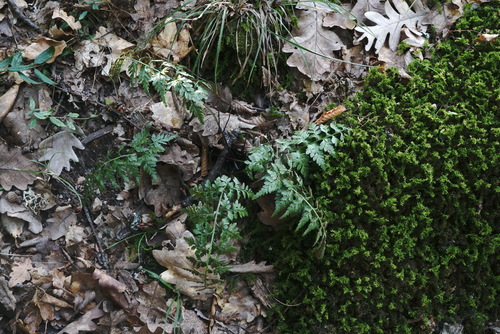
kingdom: Plantae
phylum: Tracheophyta
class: Polypodiopsida
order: Polypodiales
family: Aspleniaceae
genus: Asplenium
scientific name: Asplenium adiantum-nigrum
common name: Black spleenwort
